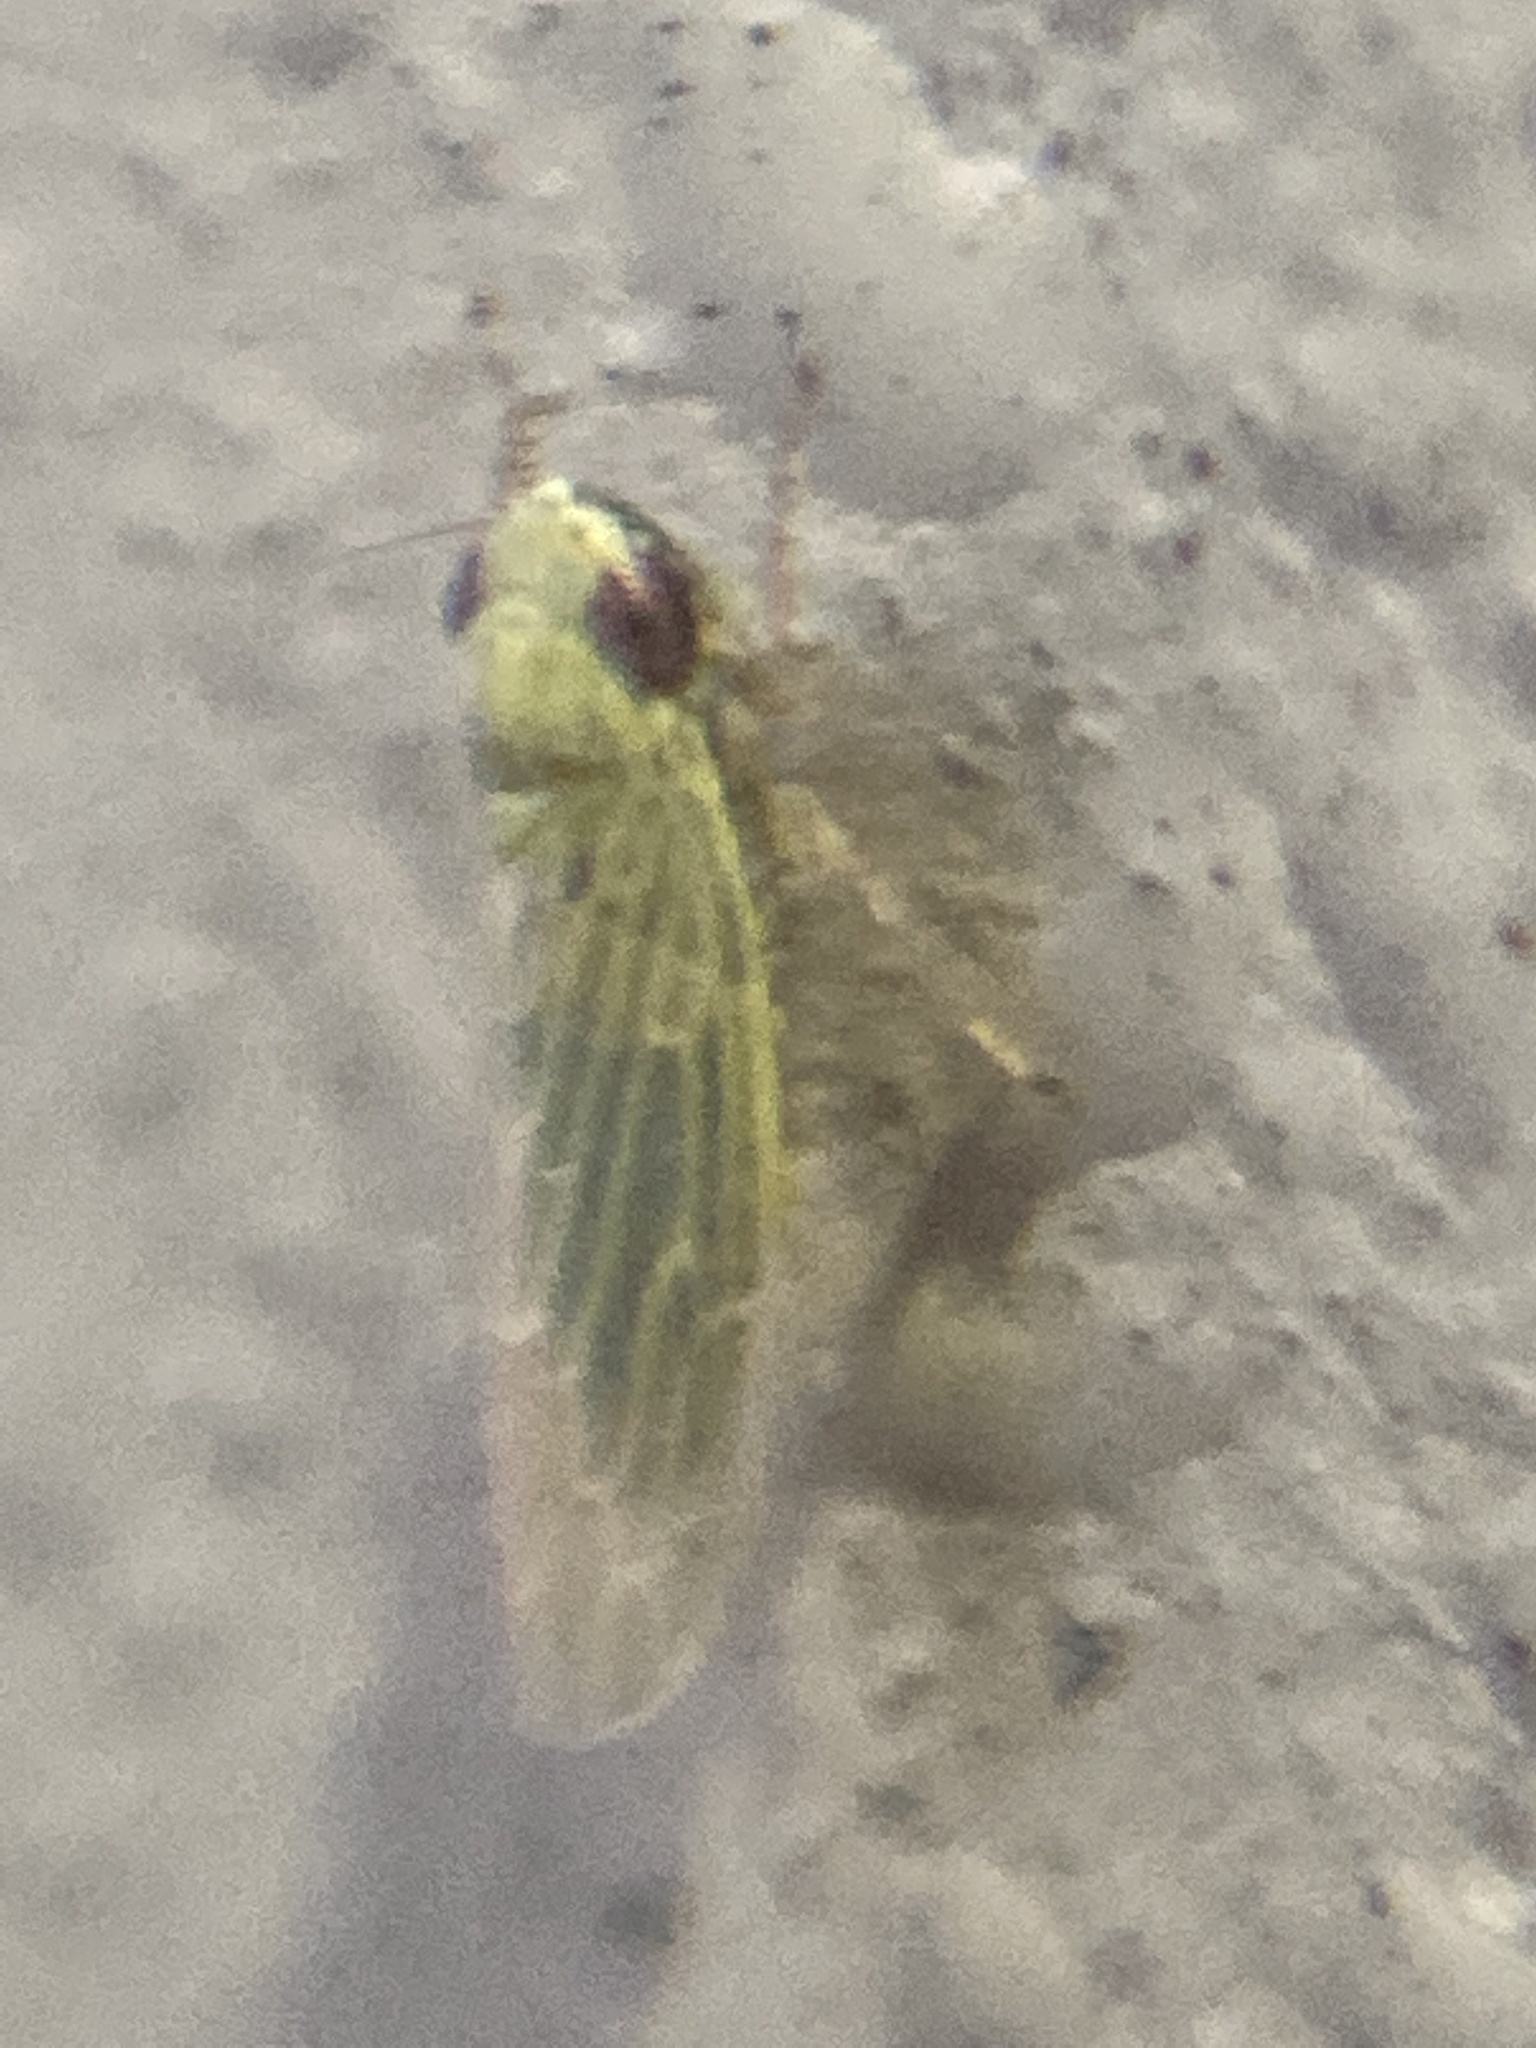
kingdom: Animalia
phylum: Arthropoda
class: Insecta
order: Hemiptera
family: Cicadellidae
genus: Graminella
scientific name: Graminella nigrifrons
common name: Blackfaced leafhopper
